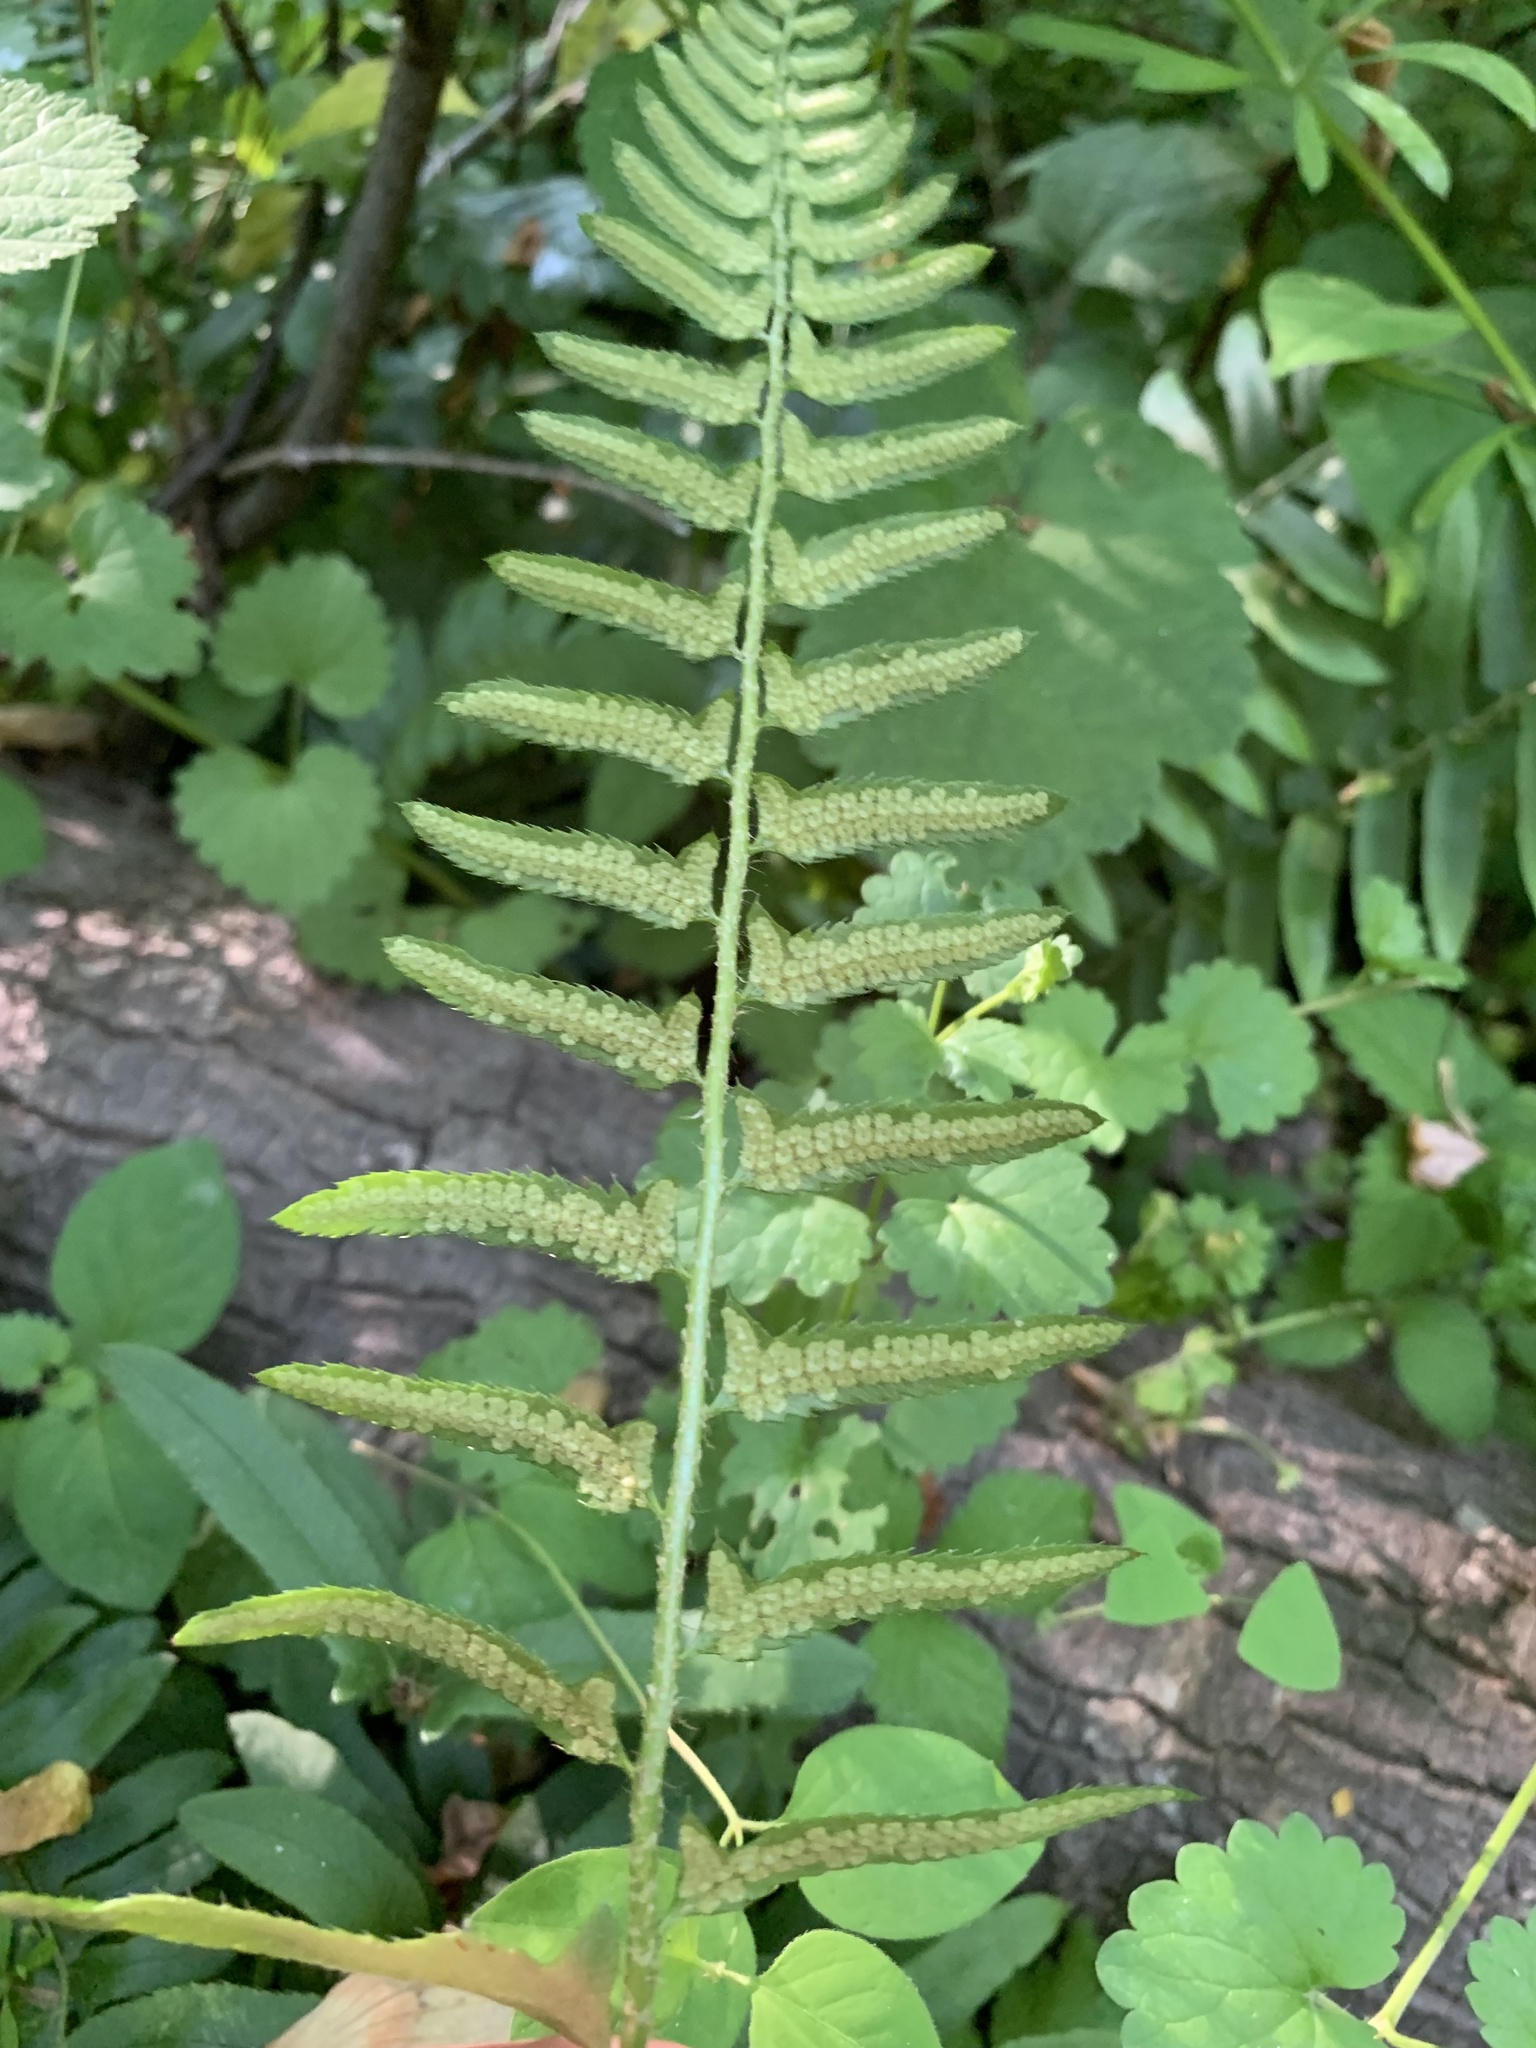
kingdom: Plantae
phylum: Tracheophyta
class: Polypodiopsida
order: Polypodiales
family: Dryopteridaceae
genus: Polystichum
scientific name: Polystichum acrostichoides
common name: Christmas fern
